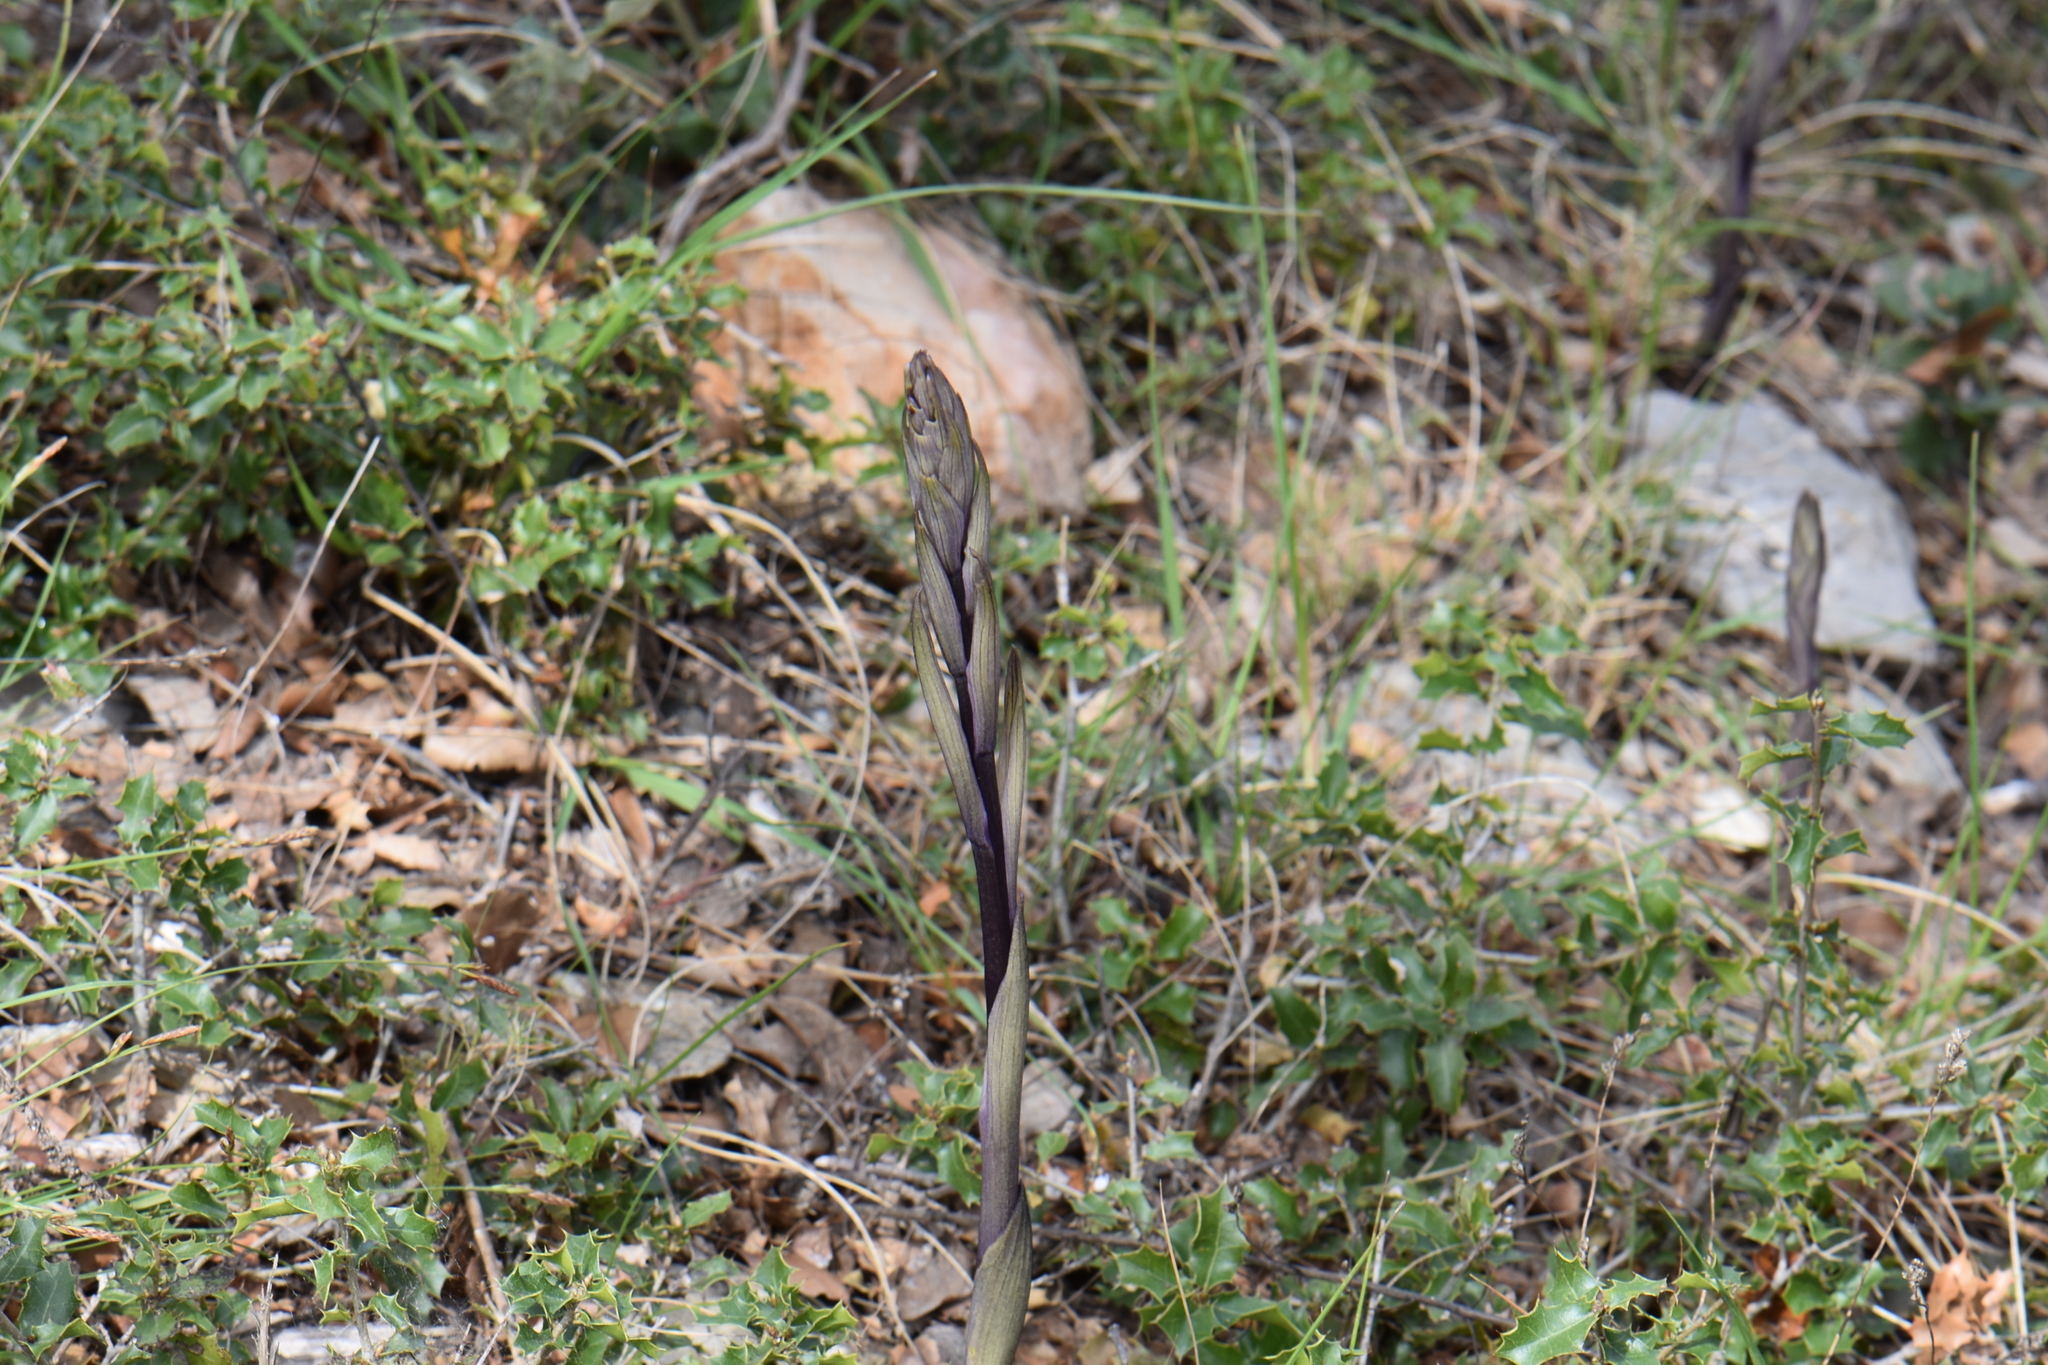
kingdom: Plantae
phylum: Tracheophyta
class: Liliopsida
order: Asparagales
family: Orchidaceae
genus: Limodorum
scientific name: Limodorum abortivum
